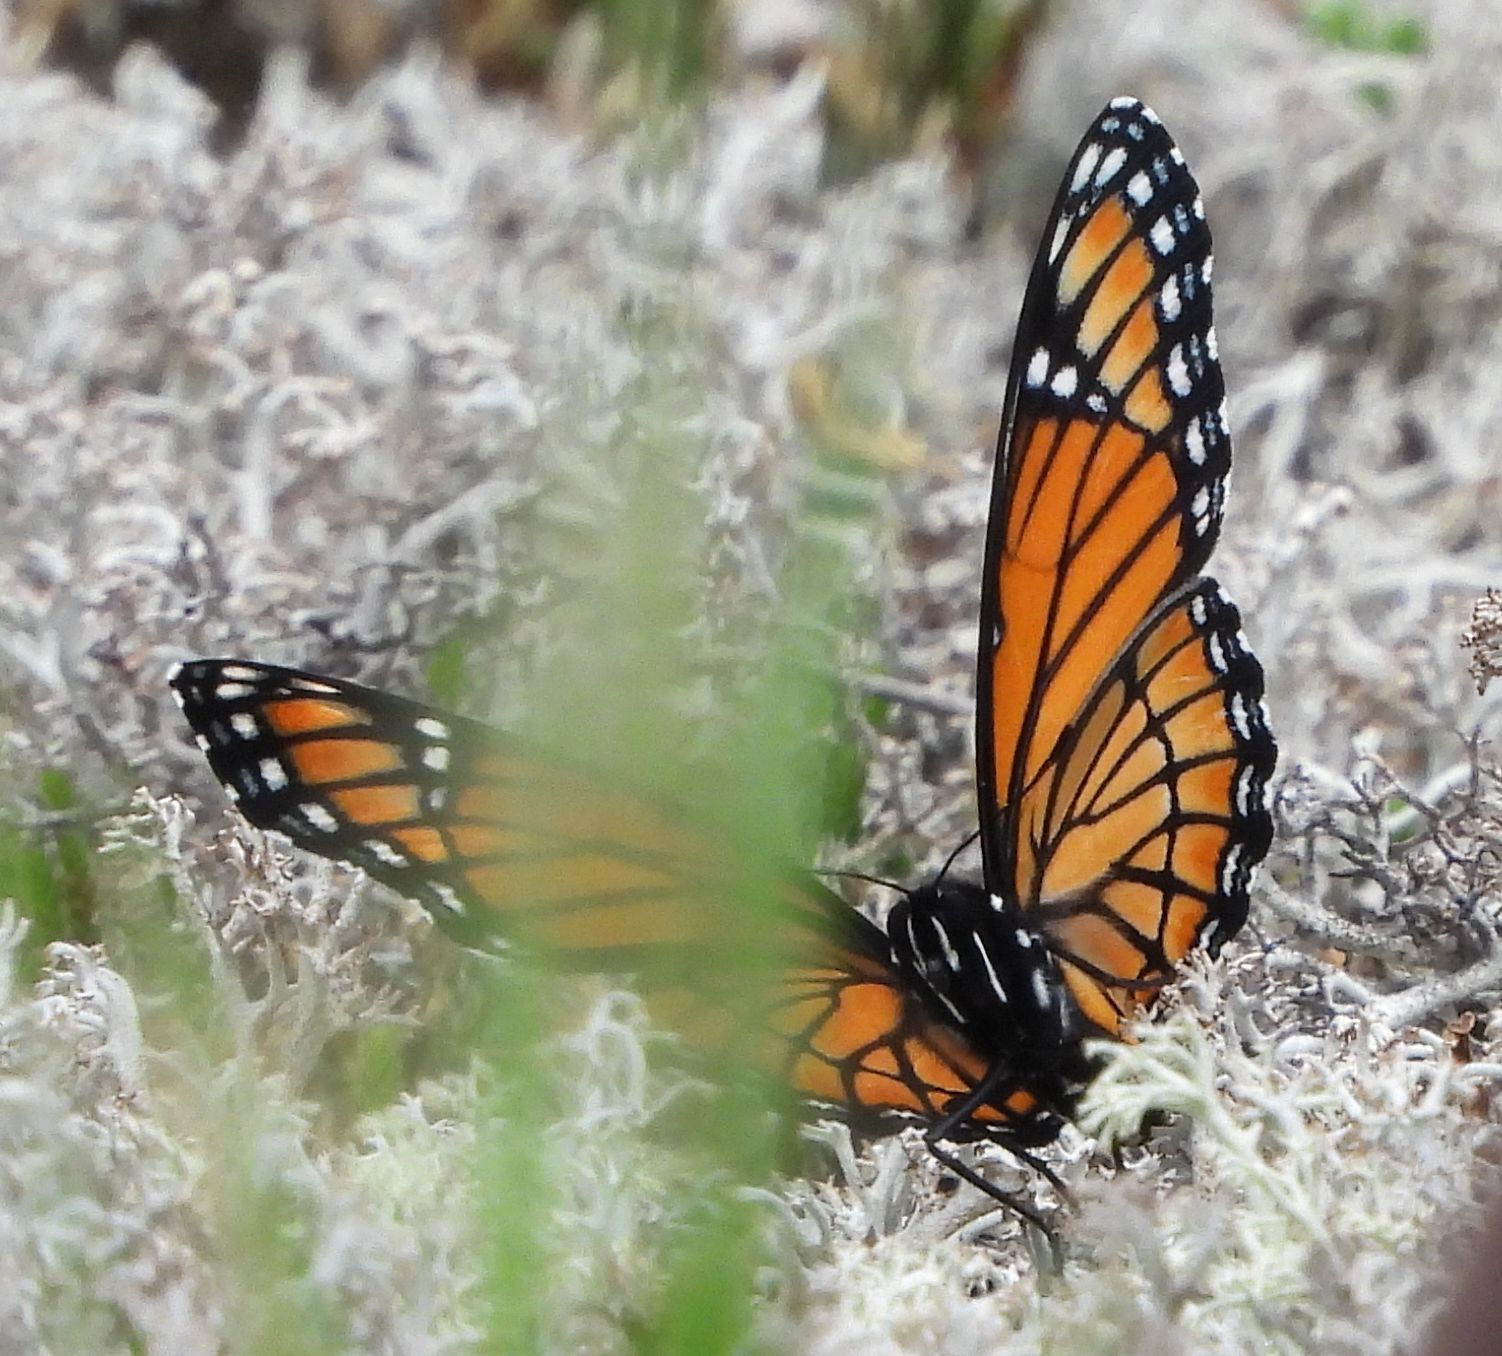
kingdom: Animalia
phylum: Arthropoda
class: Insecta
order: Lepidoptera
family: Nymphalidae
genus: Limenitis
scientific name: Limenitis archippus
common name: Viceroy
